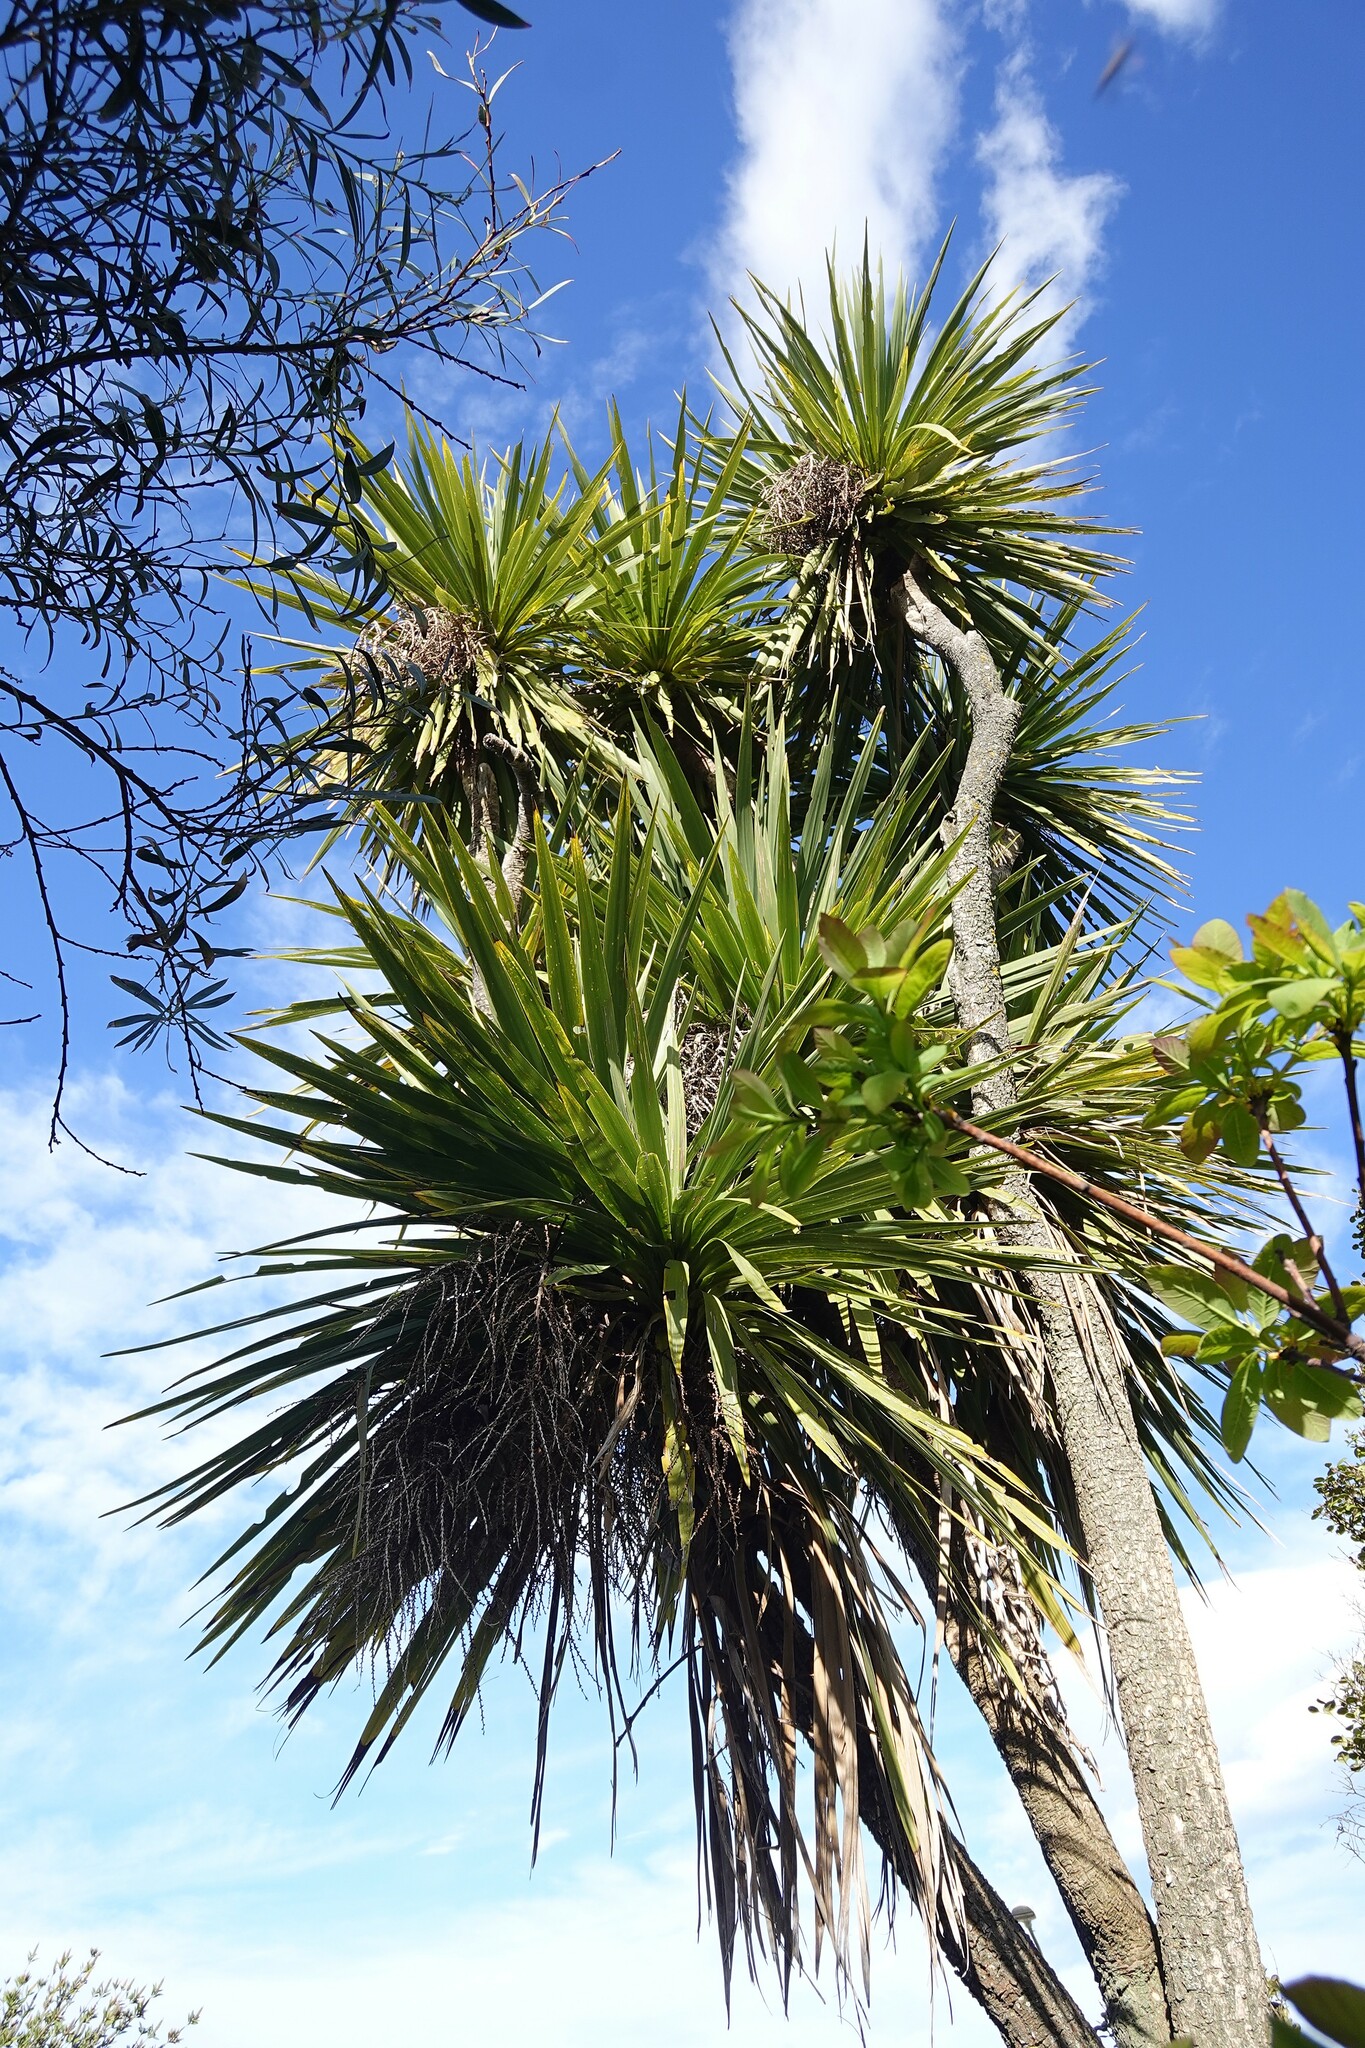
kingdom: Plantae
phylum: Tracheophyta
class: Liliopsida
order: Asparagales
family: Asparagaceae
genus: Cordyline
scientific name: Cordyline australis
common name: Cabbage-palm
